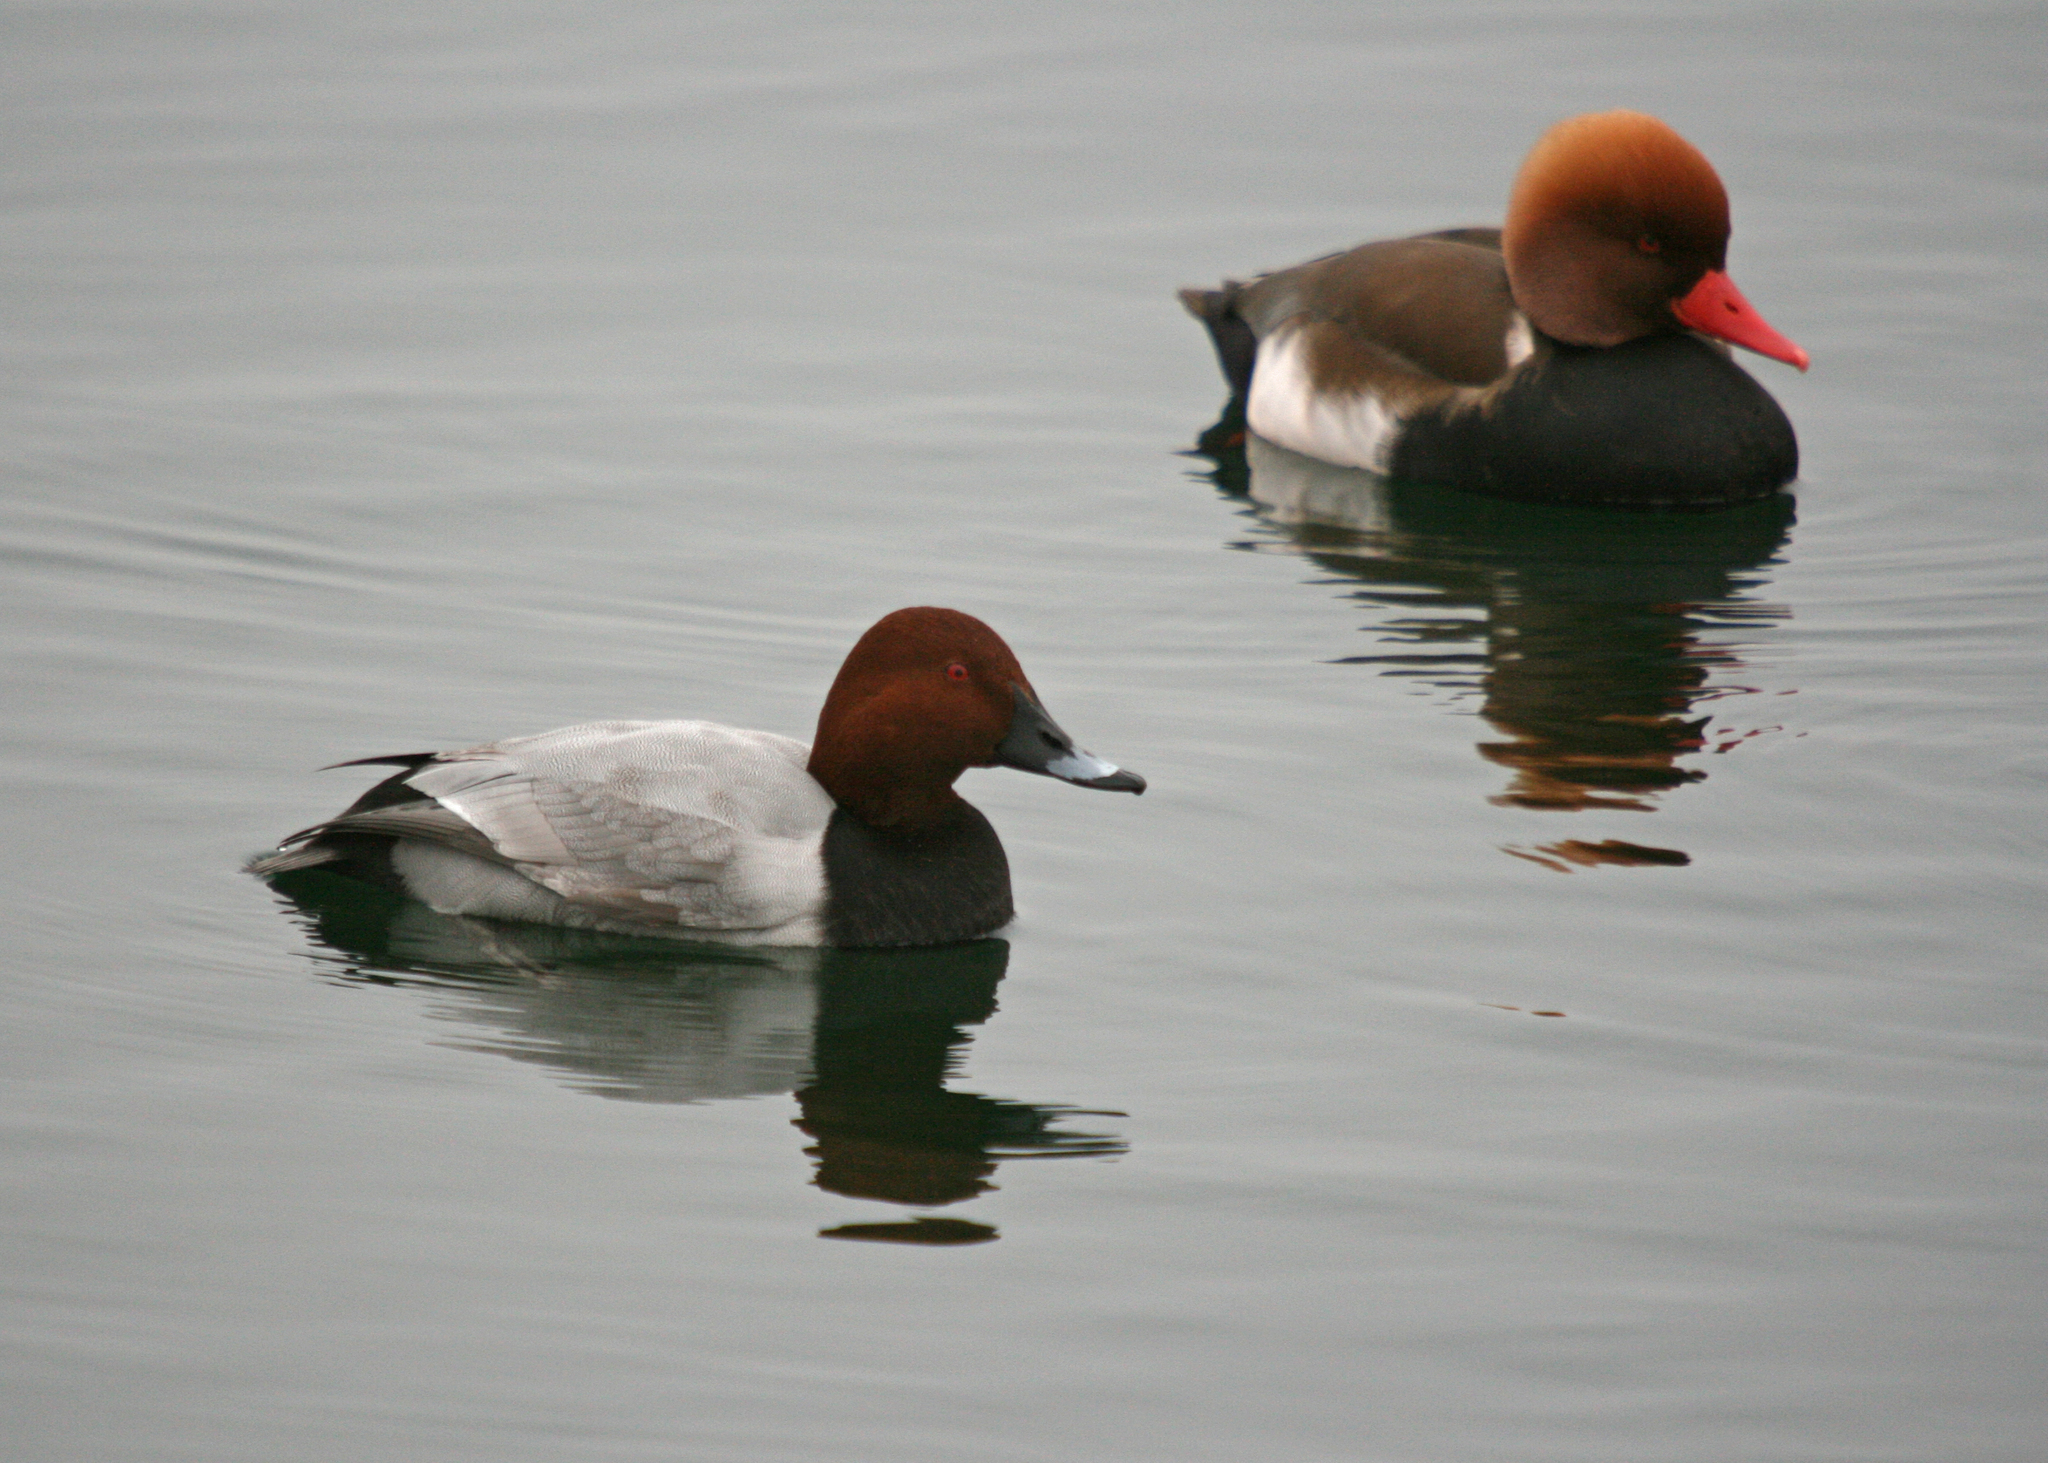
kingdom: Animalia
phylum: Chordata
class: Aves
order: Anseriformes
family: Anatidae
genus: Aythya
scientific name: Aythya ferina
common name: Common pochard
